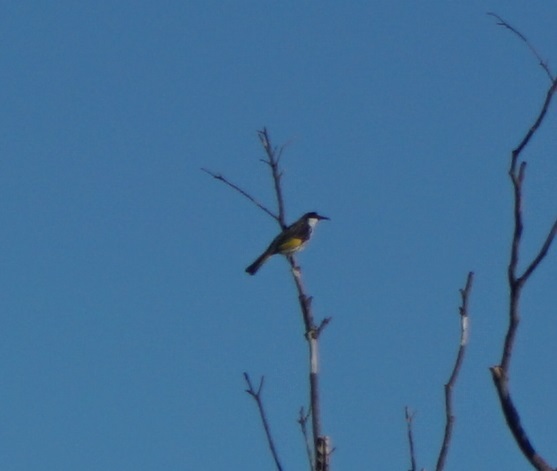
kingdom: Animalia
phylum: Chordata
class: Aves
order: Passeriformes
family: Meliphagidae
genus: Phylidonyris
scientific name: Phylidonyris niger
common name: White-cheeked honeyeater
